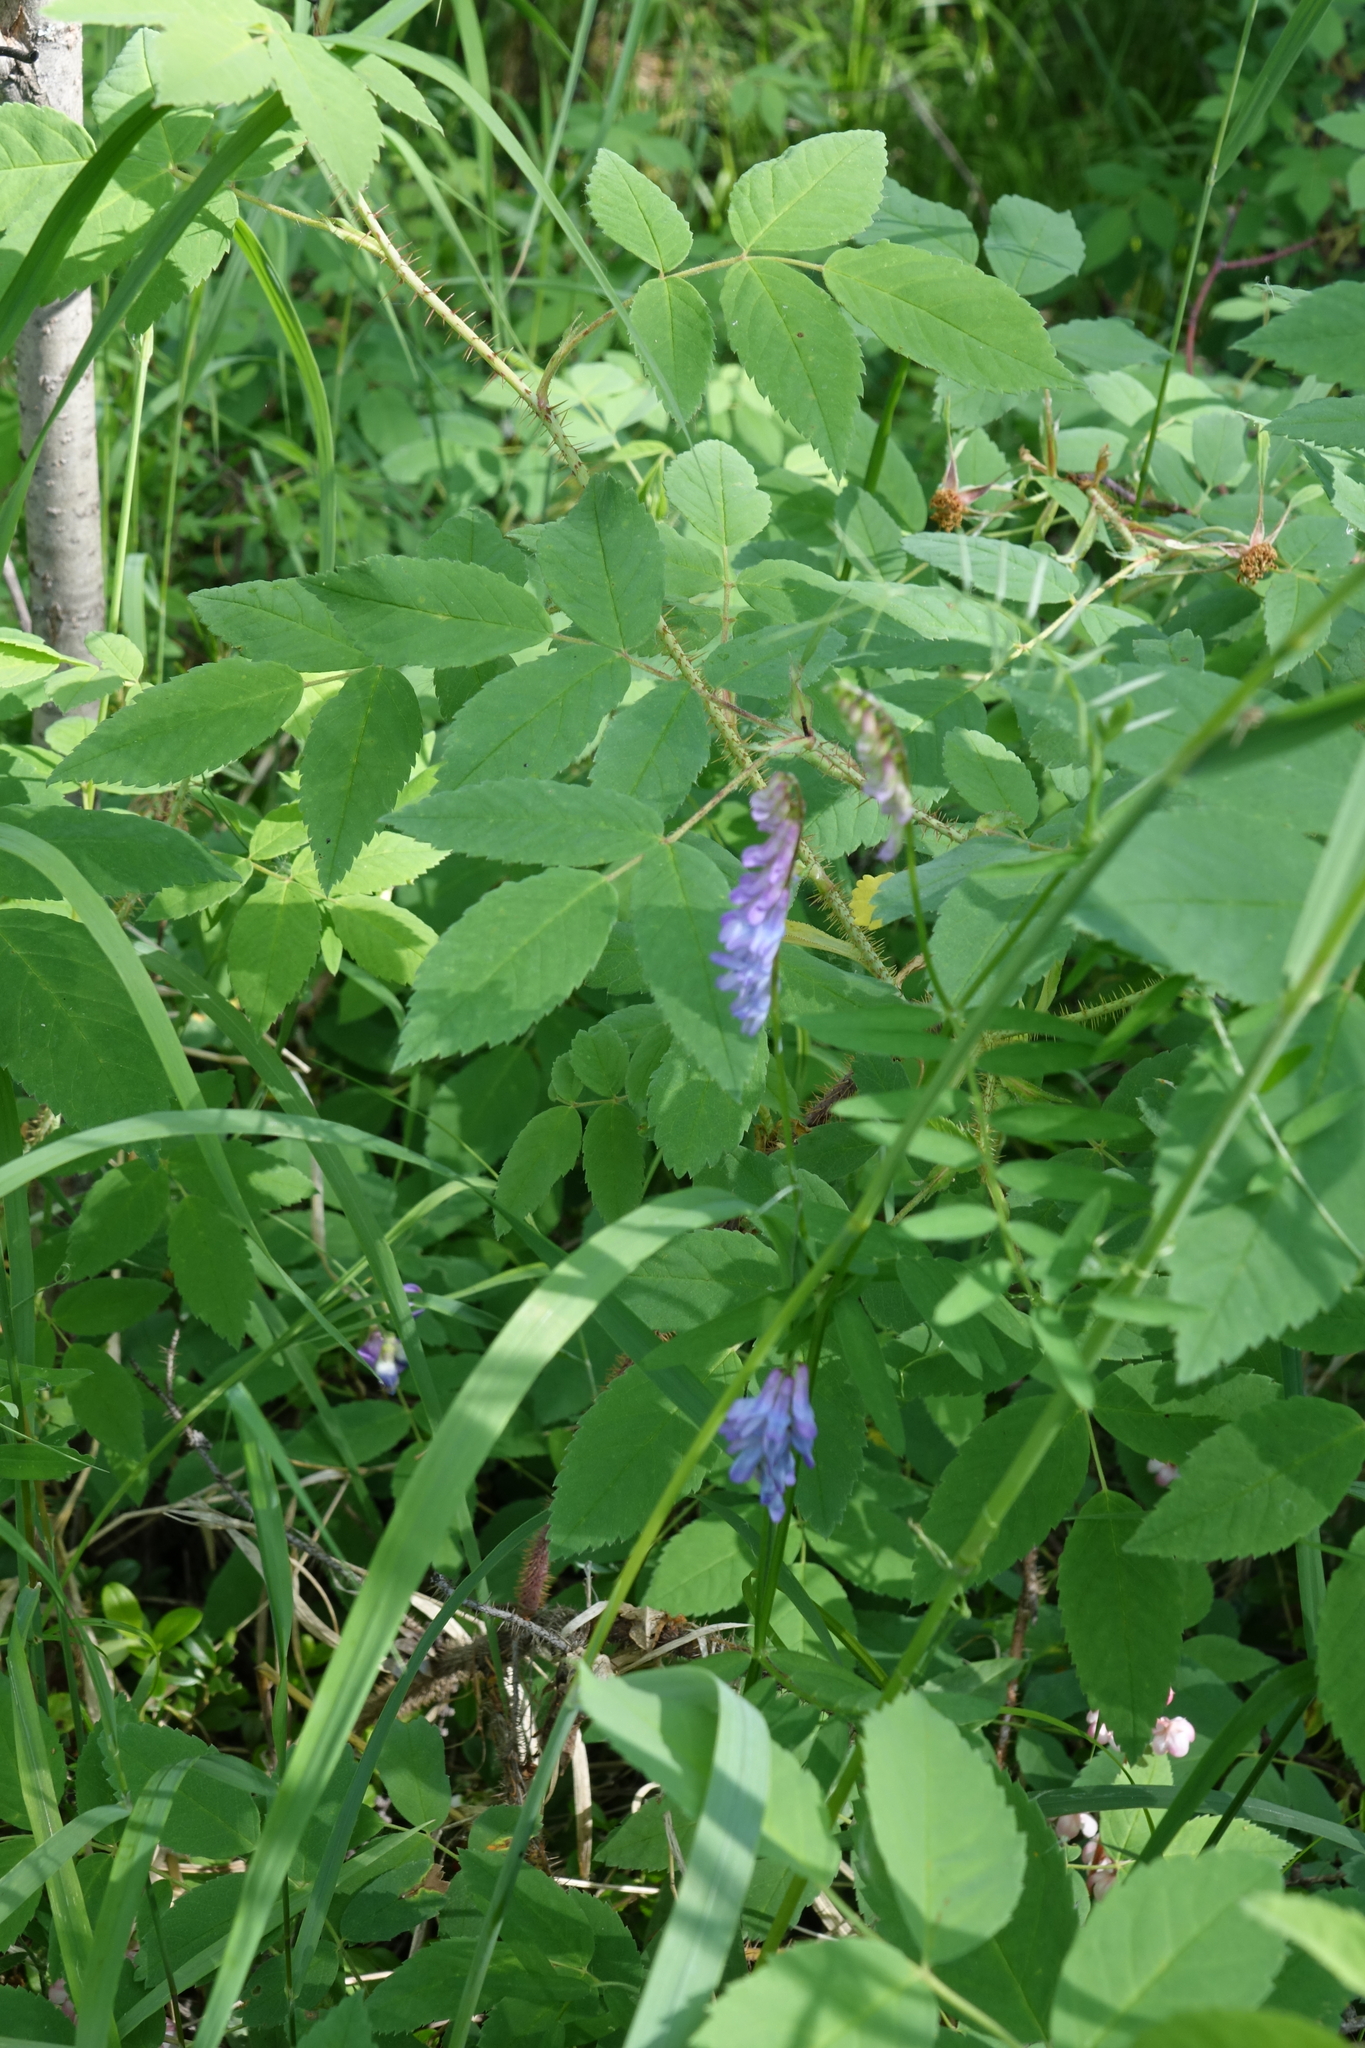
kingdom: Plantae
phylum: Tracheophyta
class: Magnoliopsida
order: Fabales
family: Fabaceae
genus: Vicia
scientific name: Vicia cracca
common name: Bird vetch
